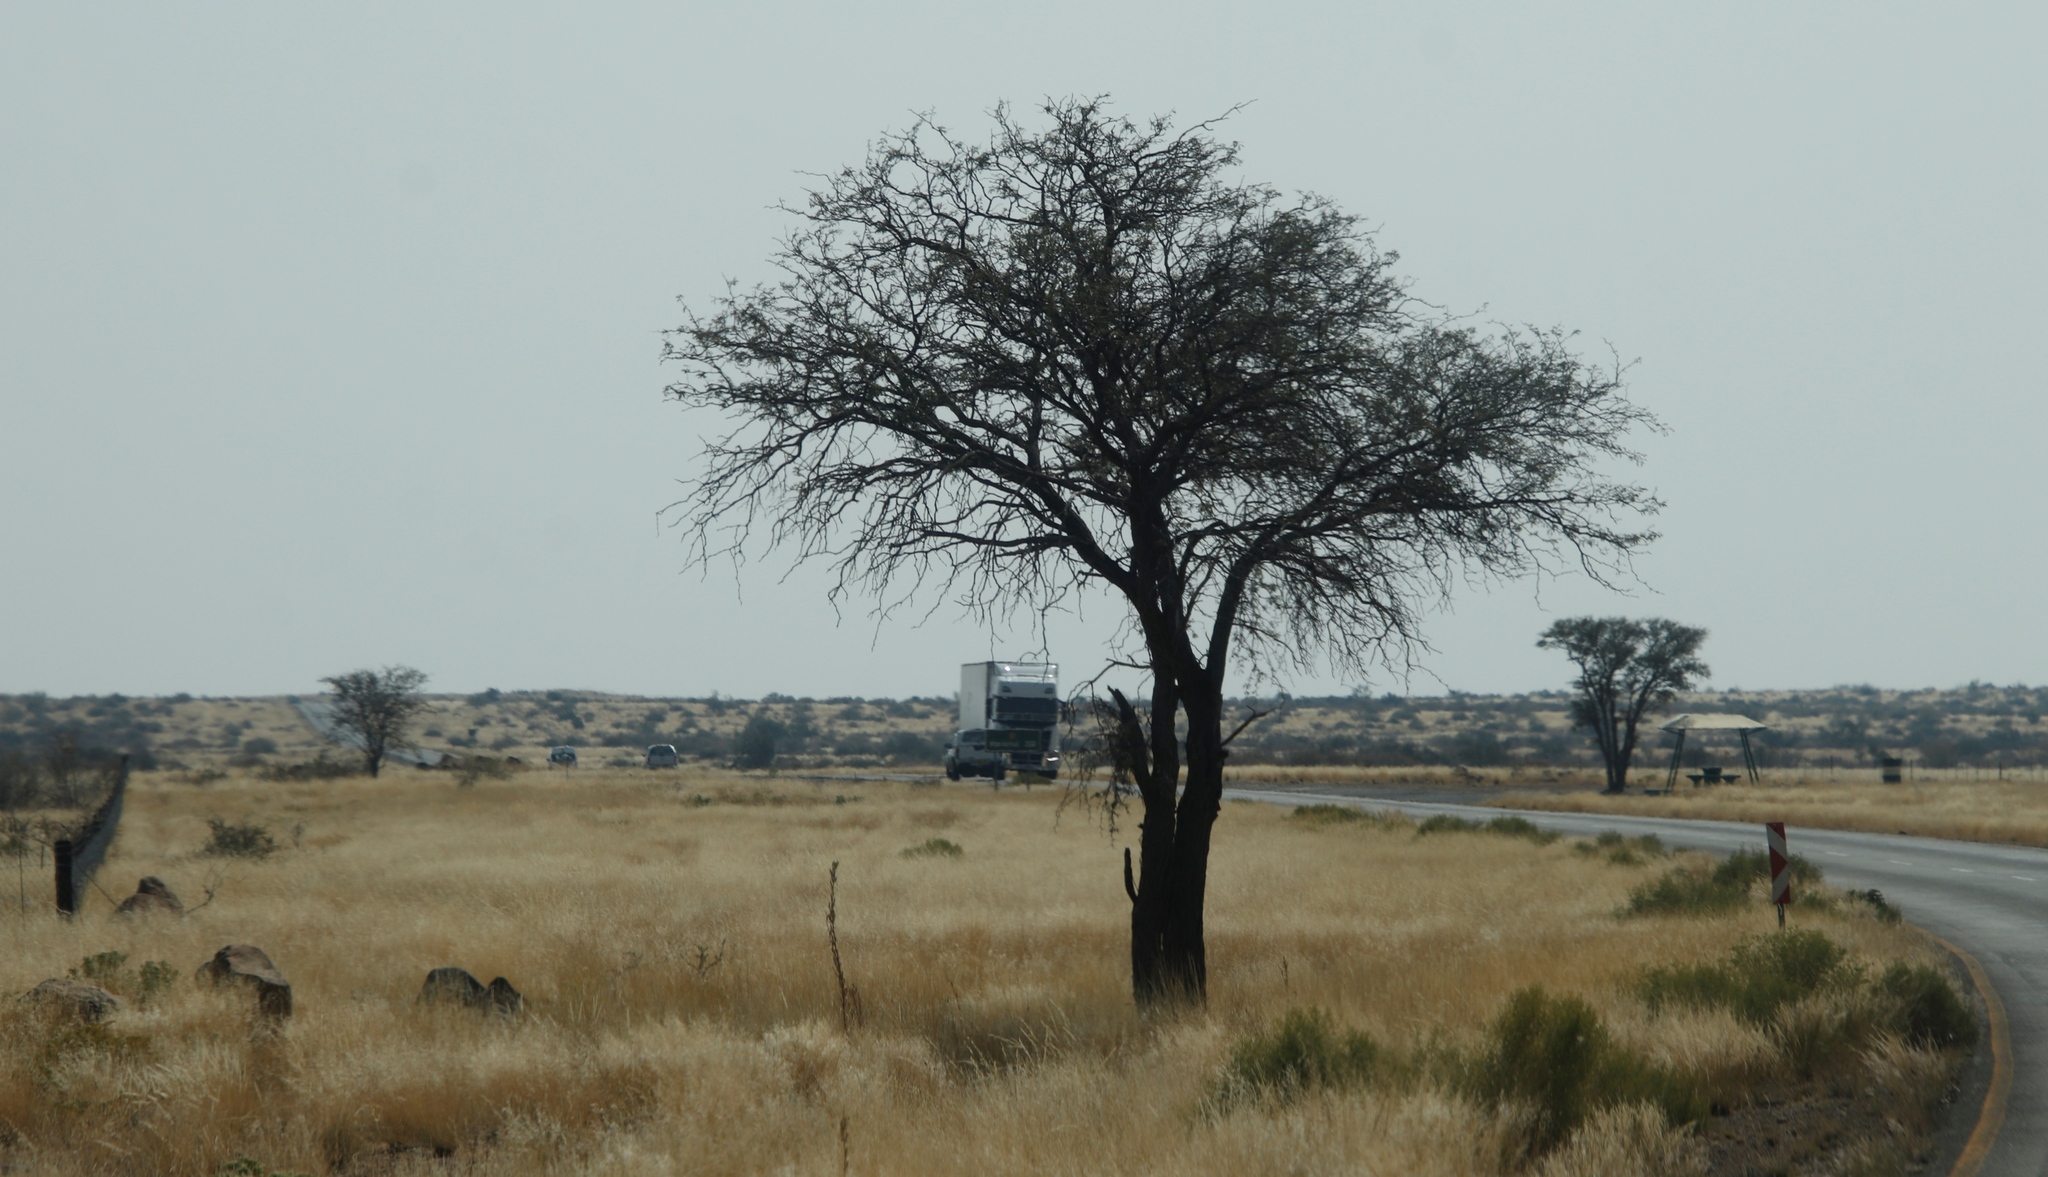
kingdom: Plantae
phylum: Tracheophyta
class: Magnoliopsida
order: Fabales
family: Fabaceae
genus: Vachellia
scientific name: Vachellia erioloba
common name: Camel thorn
